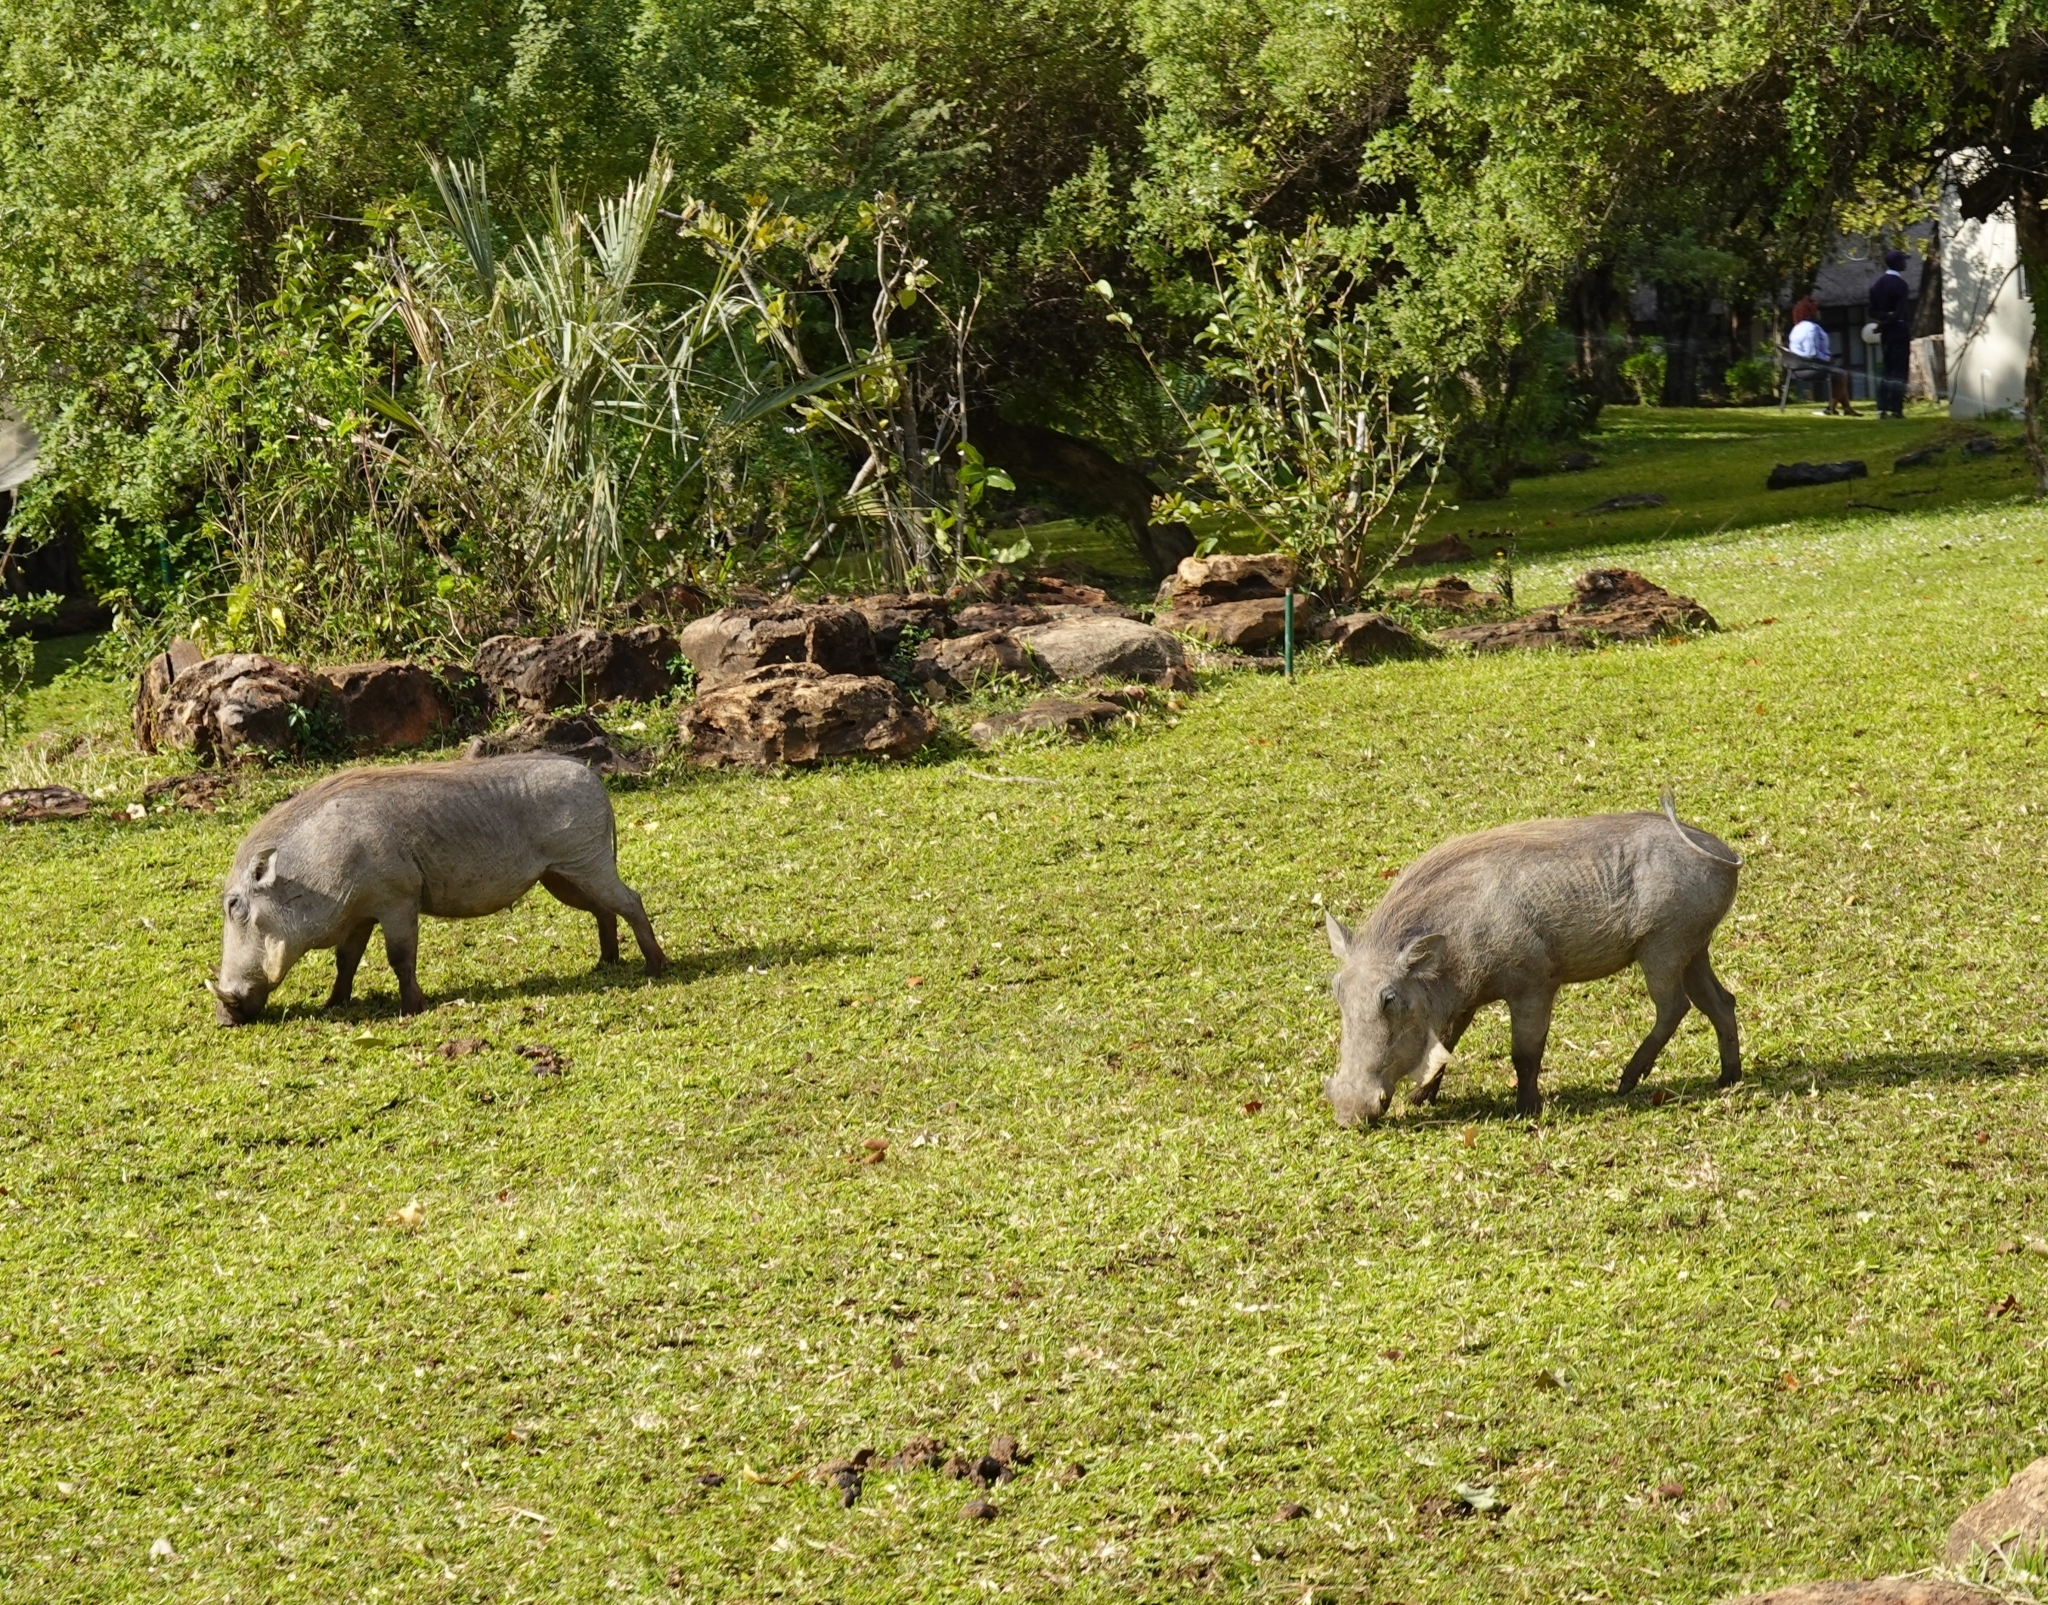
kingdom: Animalia
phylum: Chordata
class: Mammalia
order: Artiodactyla
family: Suidae
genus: Phacochoerus
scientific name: Phacochoerus africanus
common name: Common warthog
